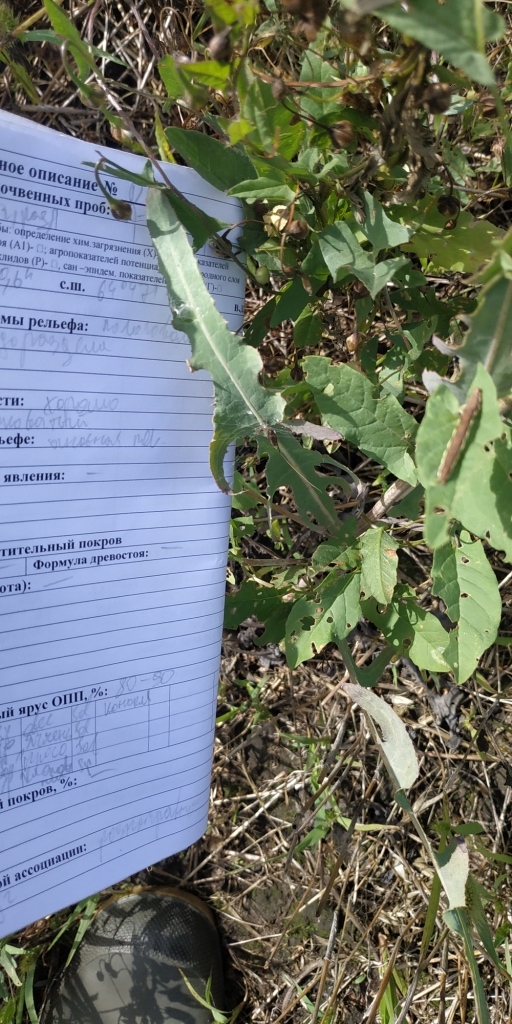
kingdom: Plantae
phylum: Tracheophyta
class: Magnoliopsida
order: Asterales
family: Asteraceae
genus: Lactuca
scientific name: Lactuca tatarica
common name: Blue lettuce
